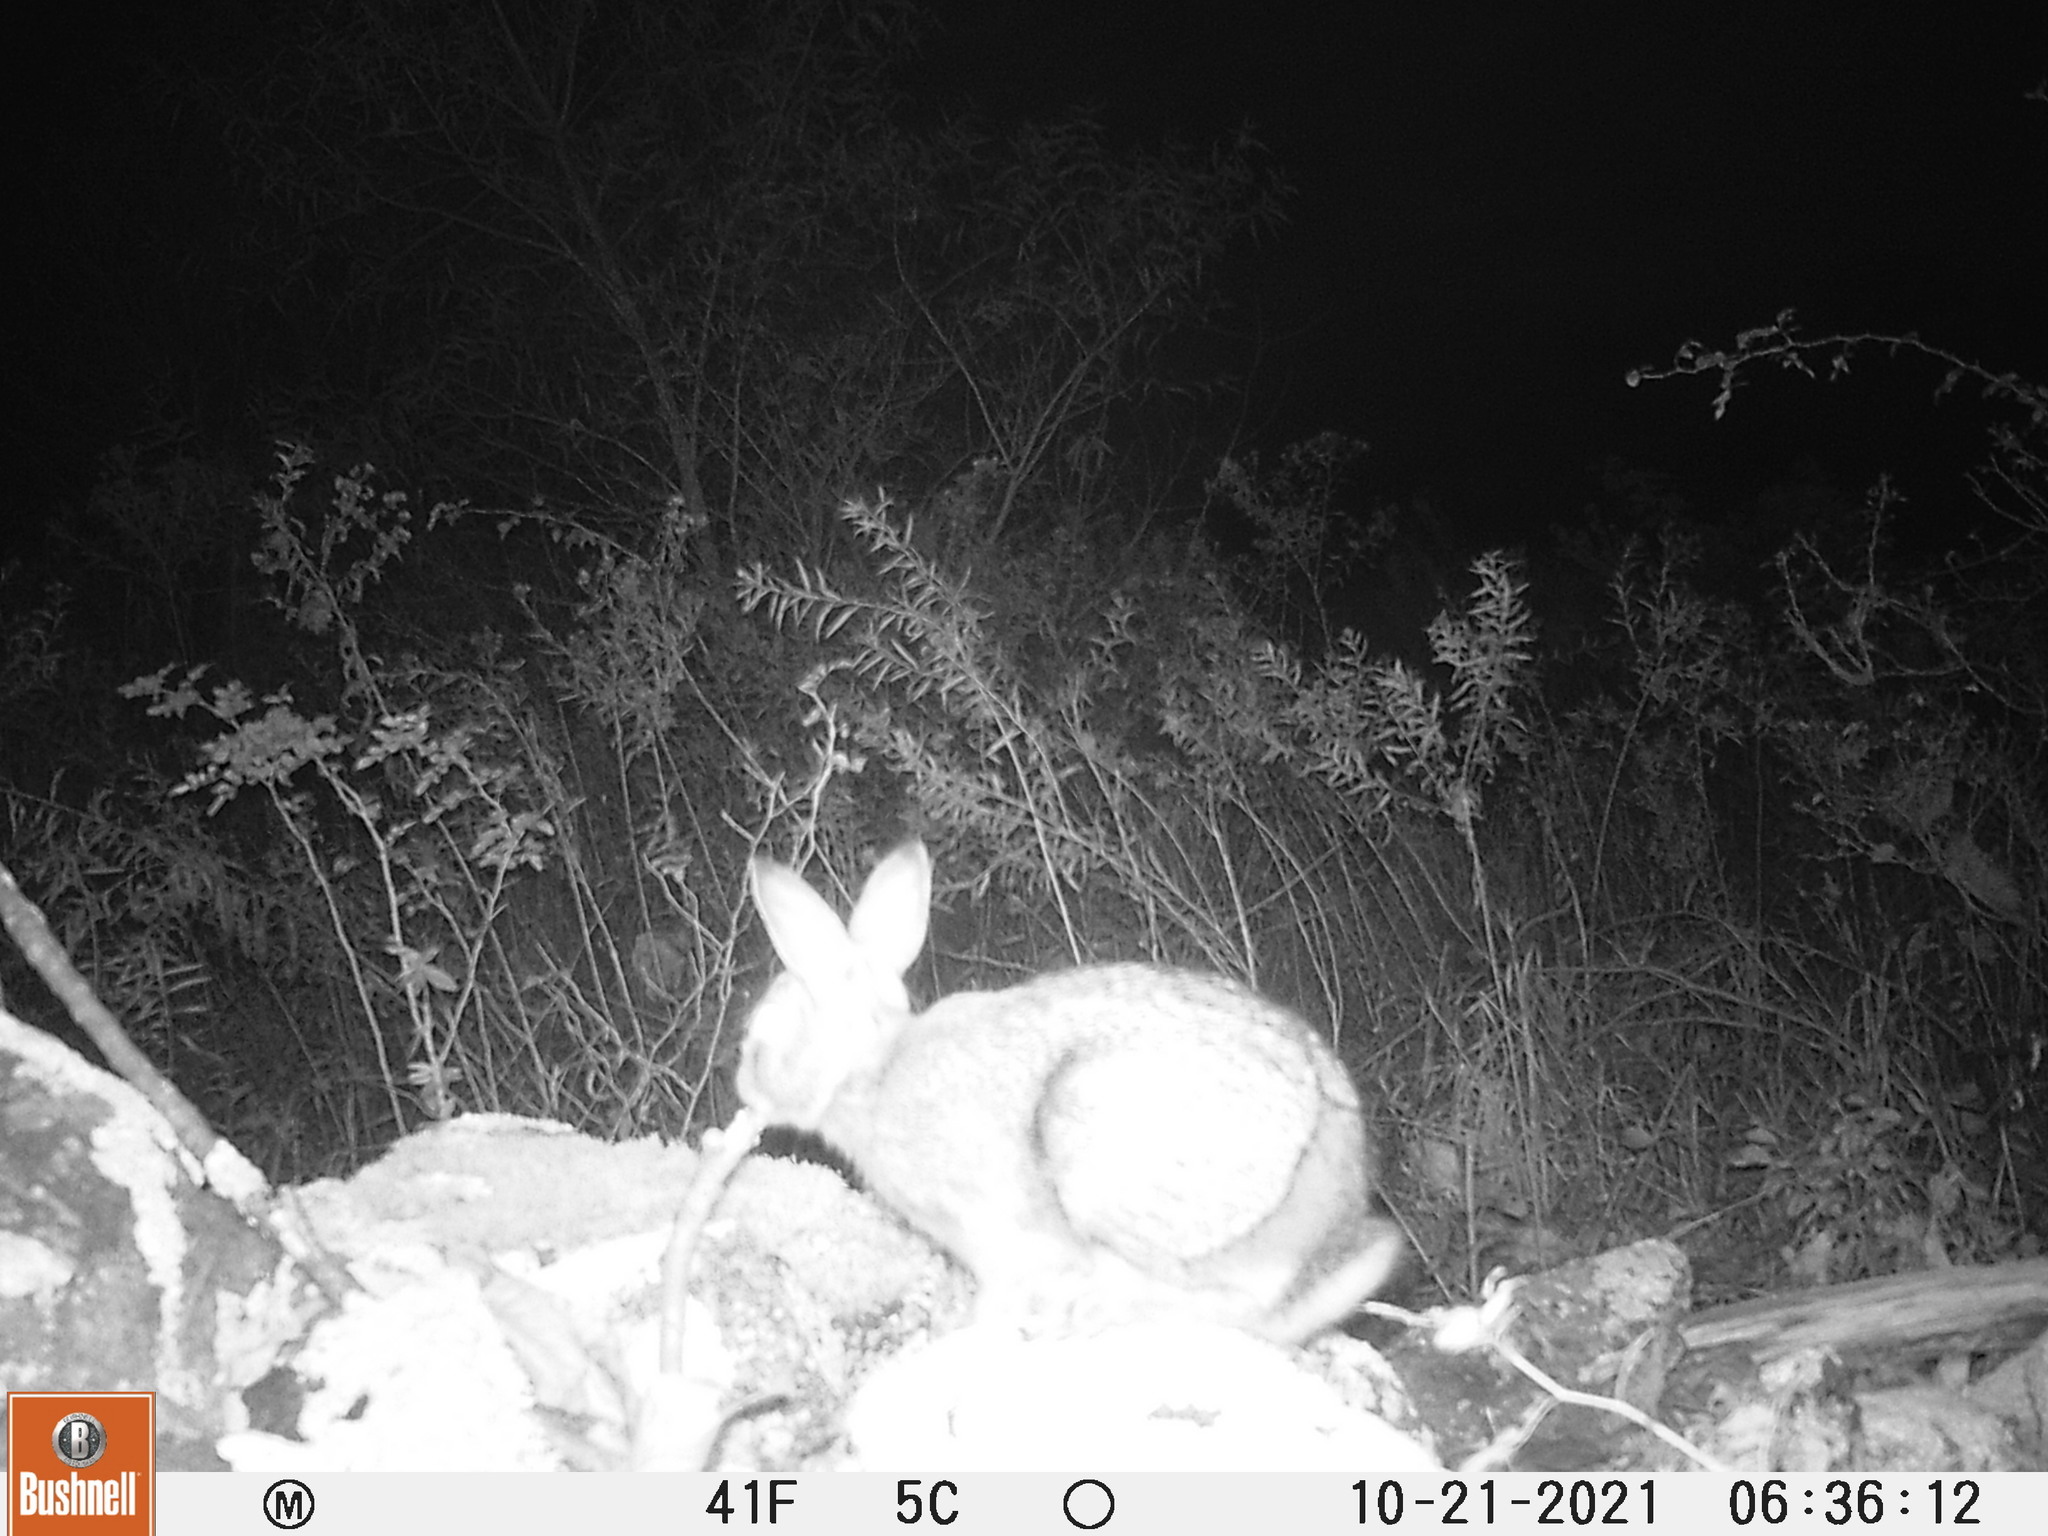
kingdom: Animalia
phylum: Chordata
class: Mammalia
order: Lagomorpha
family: Leporidae
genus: Sylvilagus
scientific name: Sylvilagus floridanus
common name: Eastern cottontail
